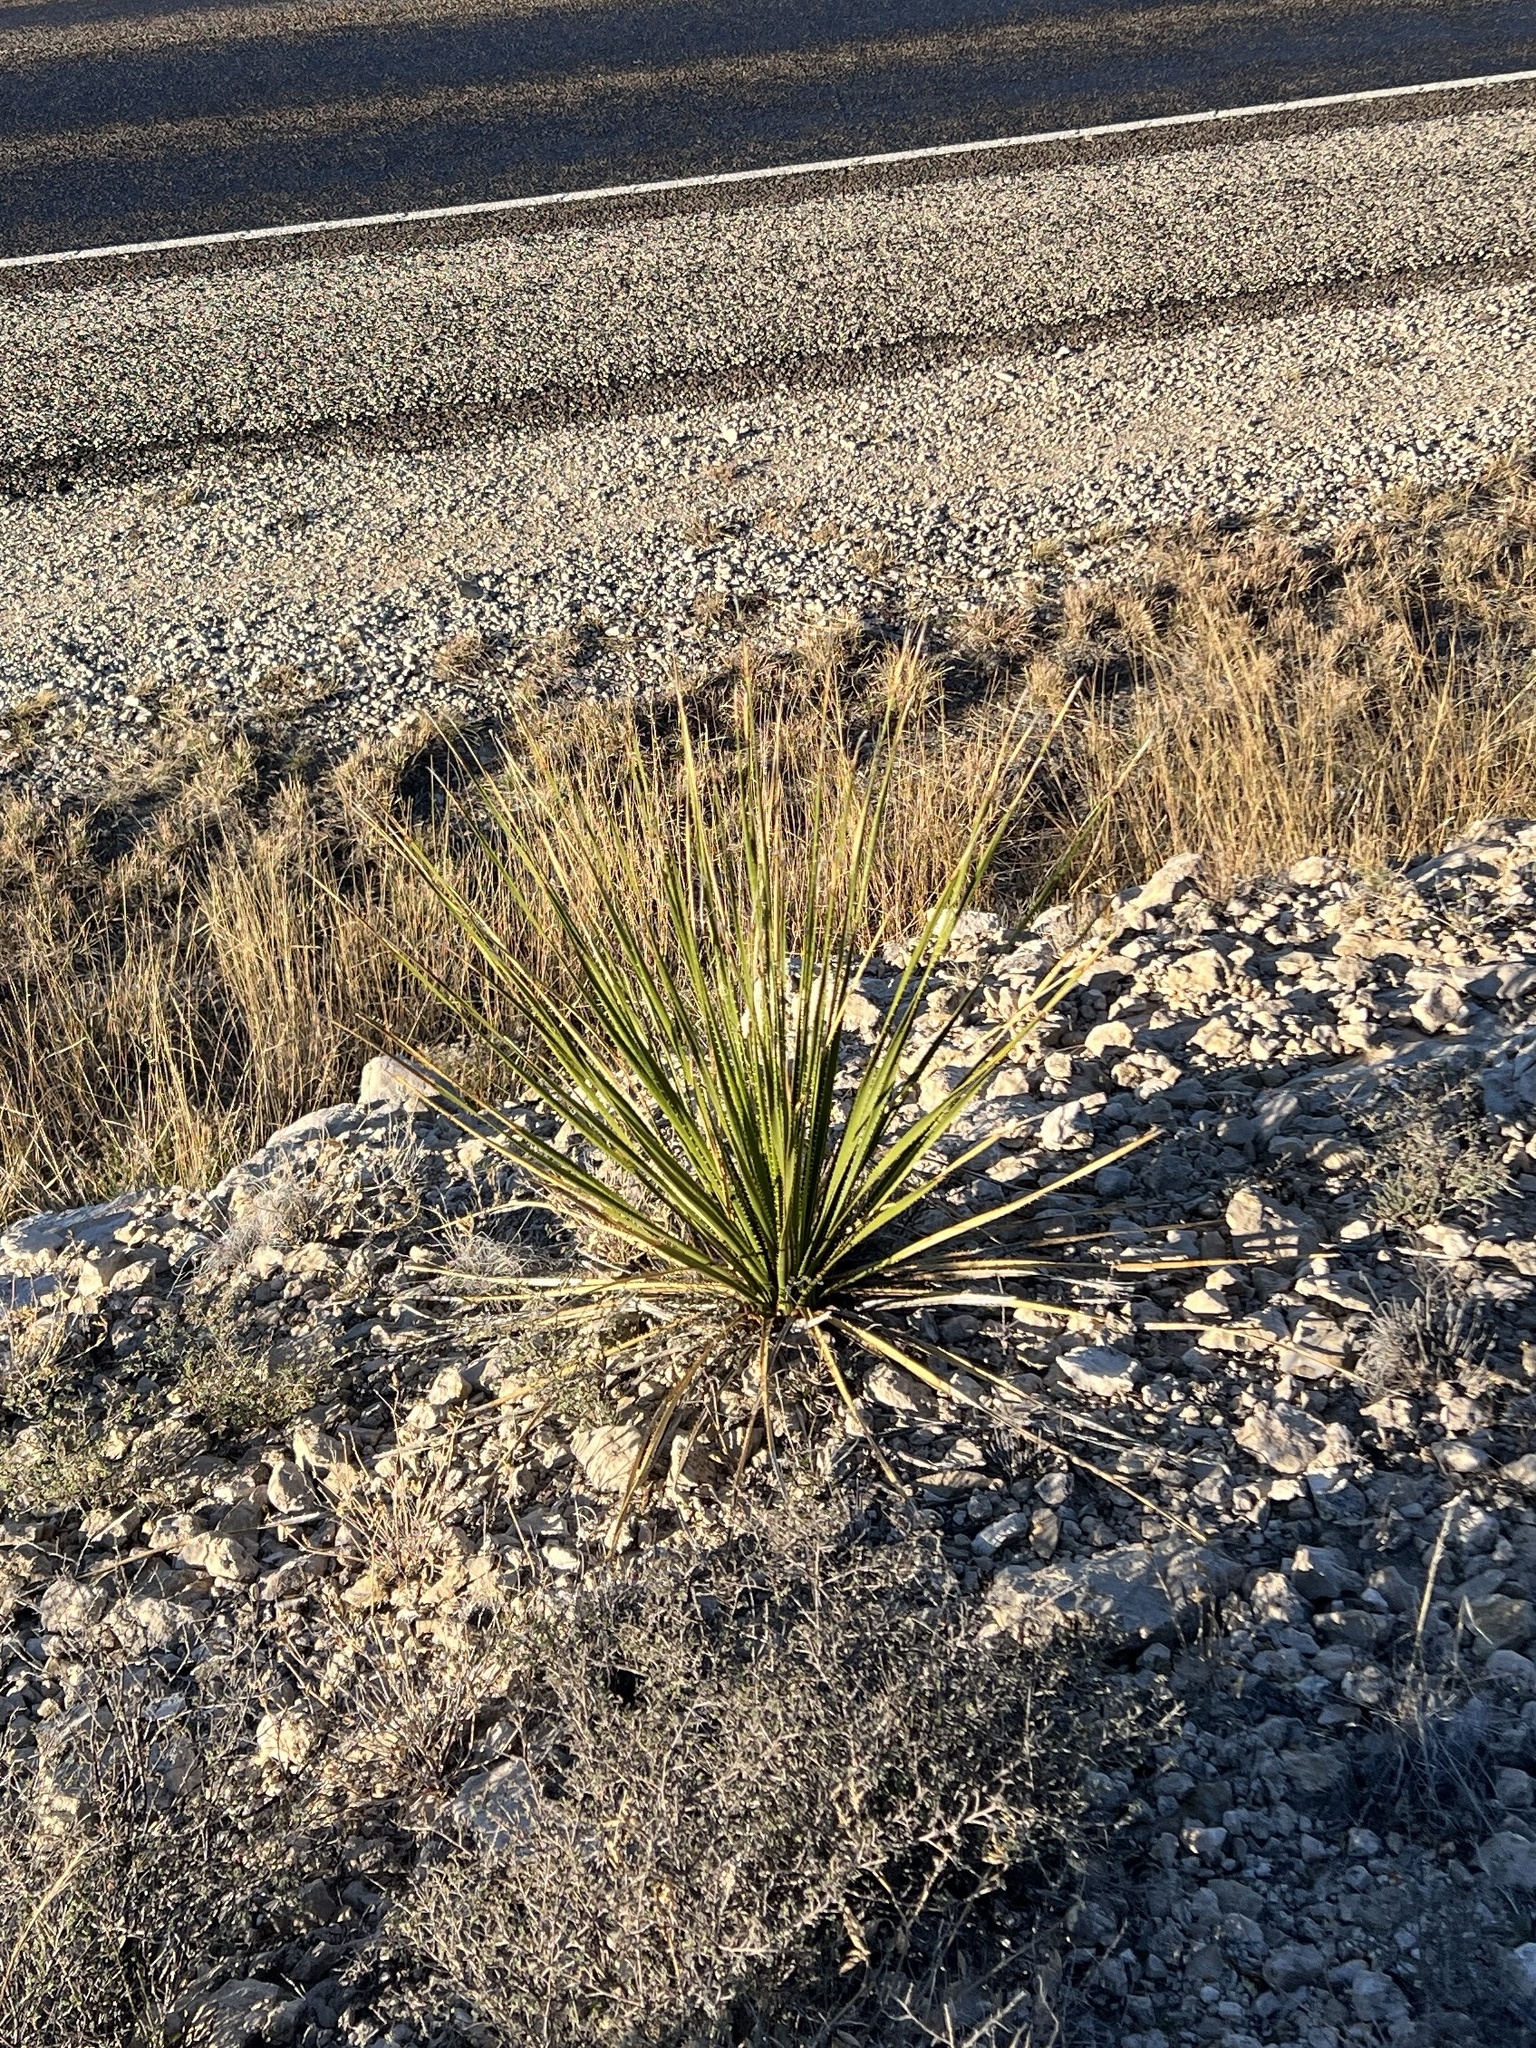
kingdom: Plantae
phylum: Tracheophyta
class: Liliopsida
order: Asparagales
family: Asparagaceae
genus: Dasylirion
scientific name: Dasylirion texanum
